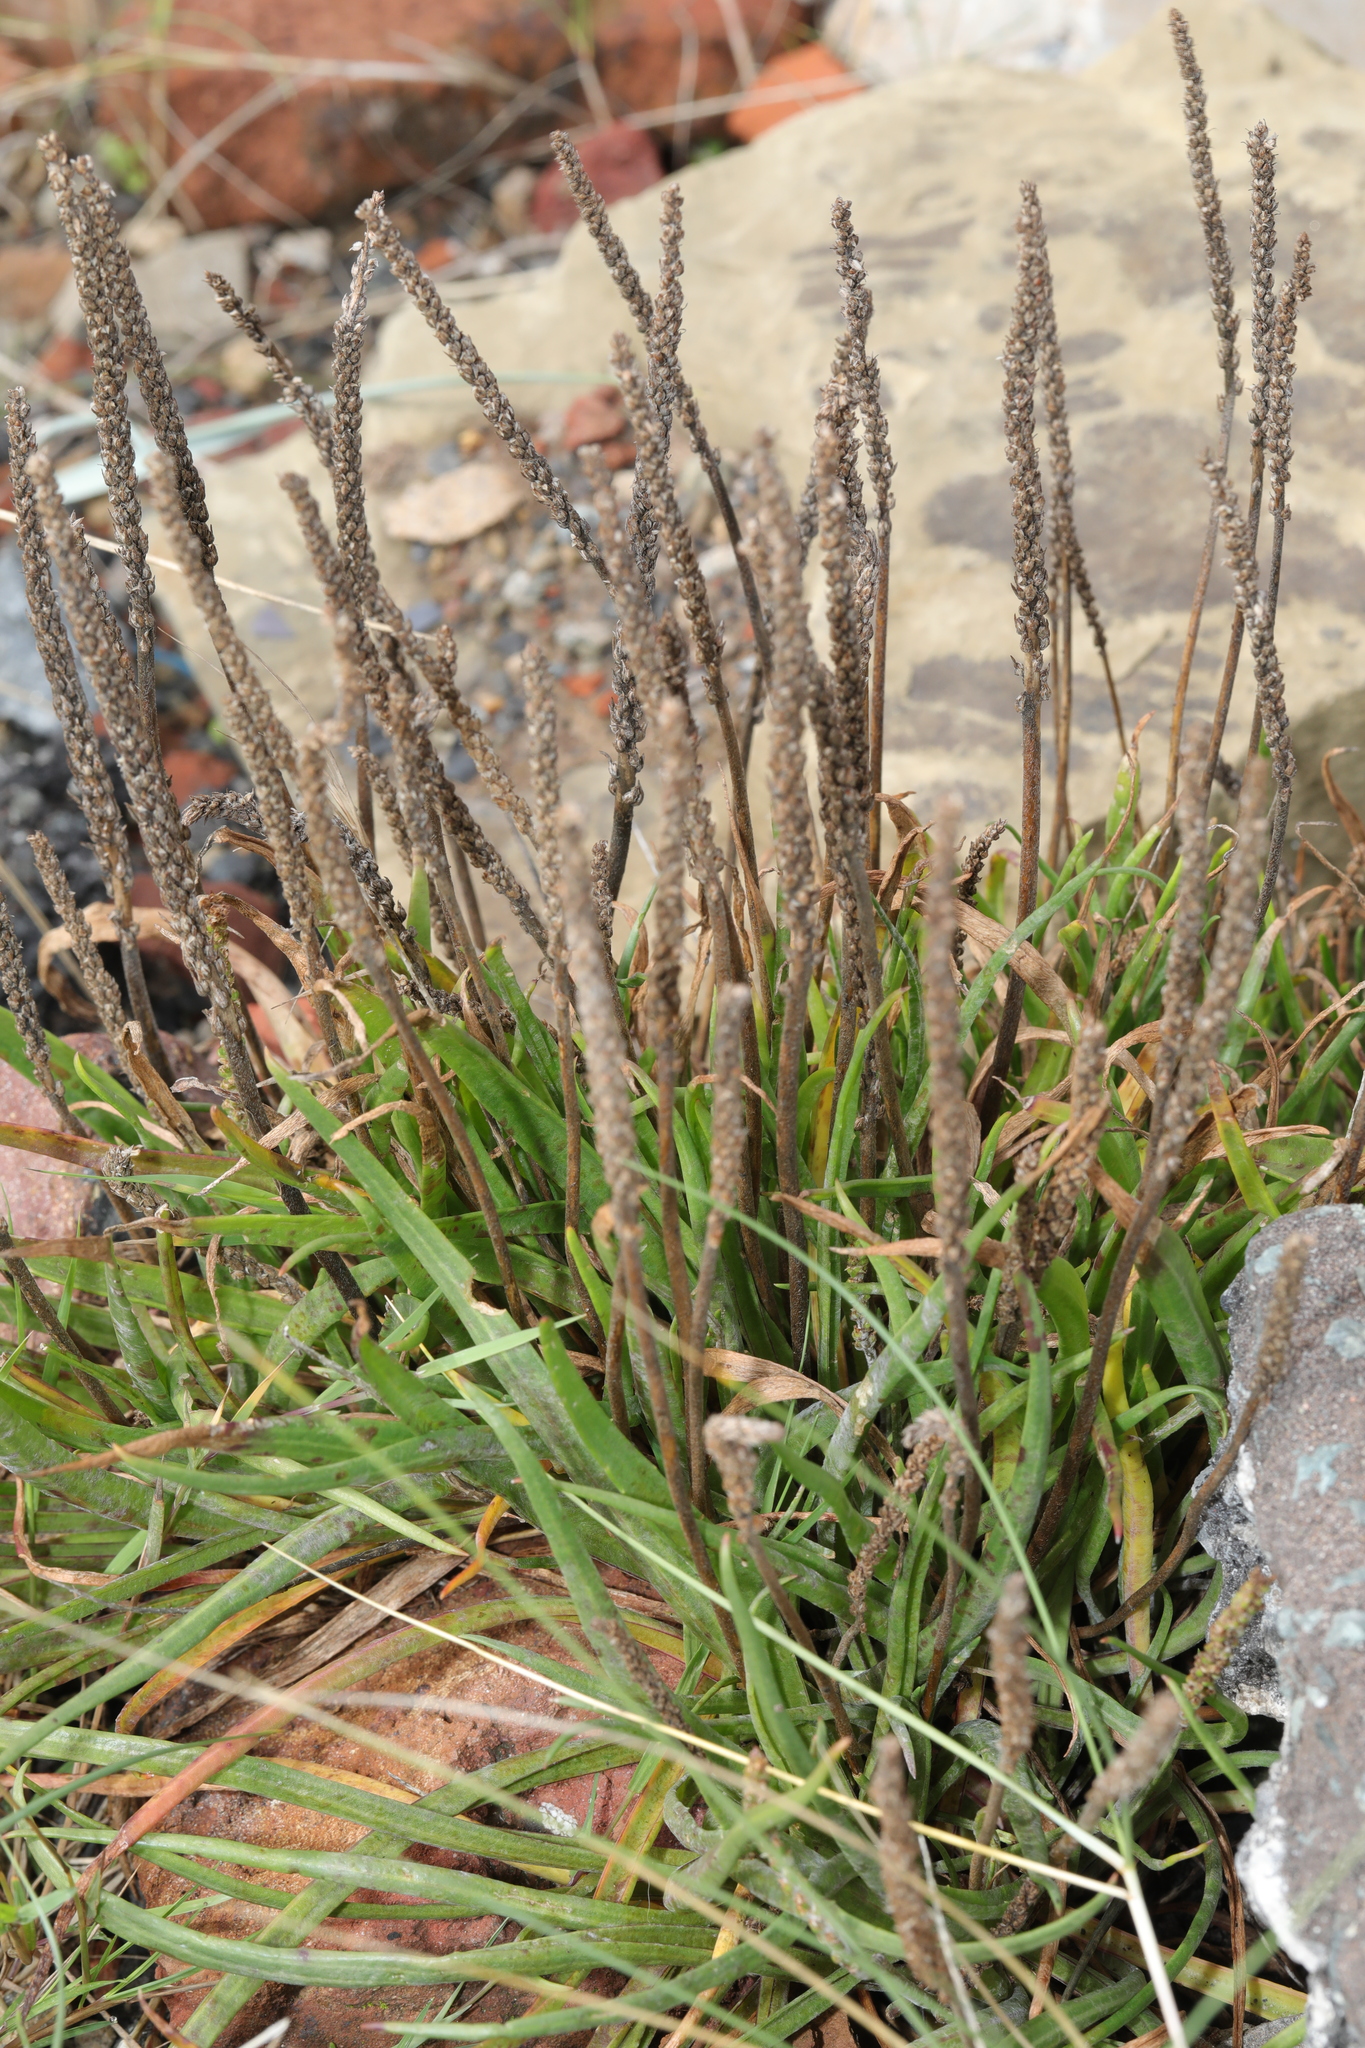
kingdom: Plantae
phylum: Tracheophyta
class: Magnoliopsida
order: Lamiales
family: Plantaginaceae
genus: Plantago
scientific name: Plantago maritima
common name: Sea plantain
